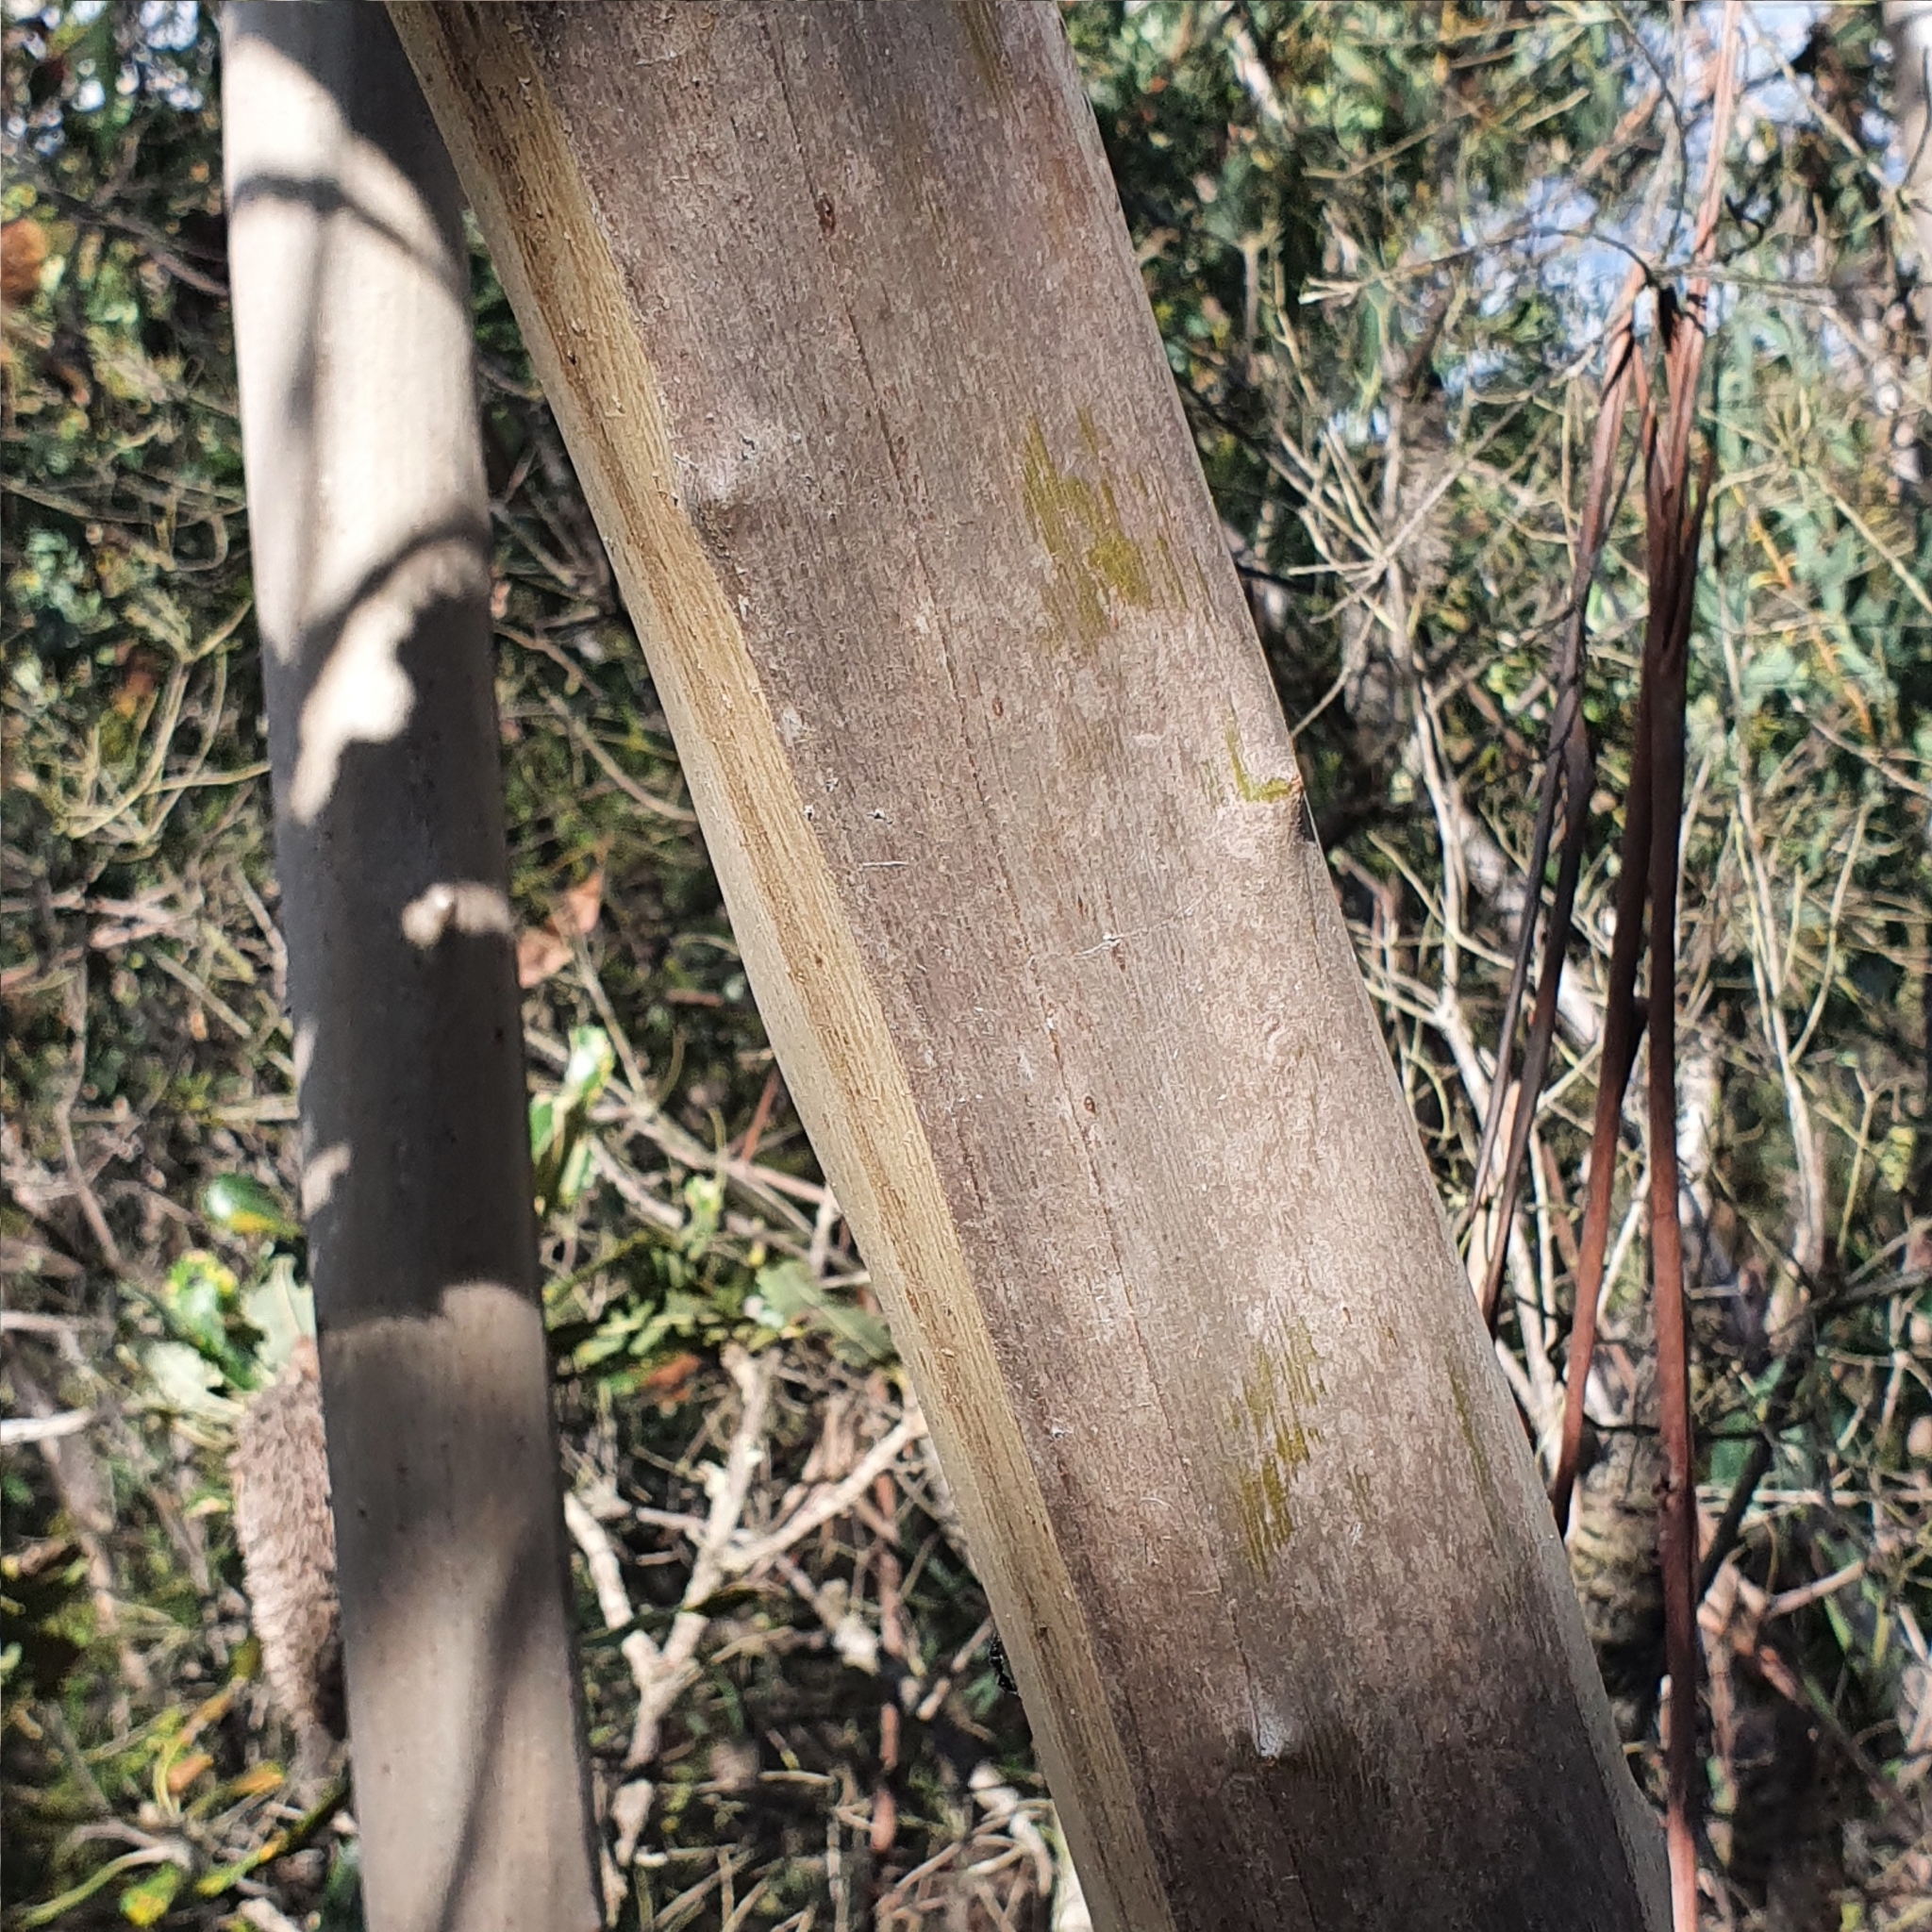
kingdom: Plantae
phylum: Tracheophyta
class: Magnoliopsida
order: Myrtales
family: Myrtaceae
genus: Eucalyptus
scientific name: Eucalyptus luehmanniana
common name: Yellow-top mallee ash
